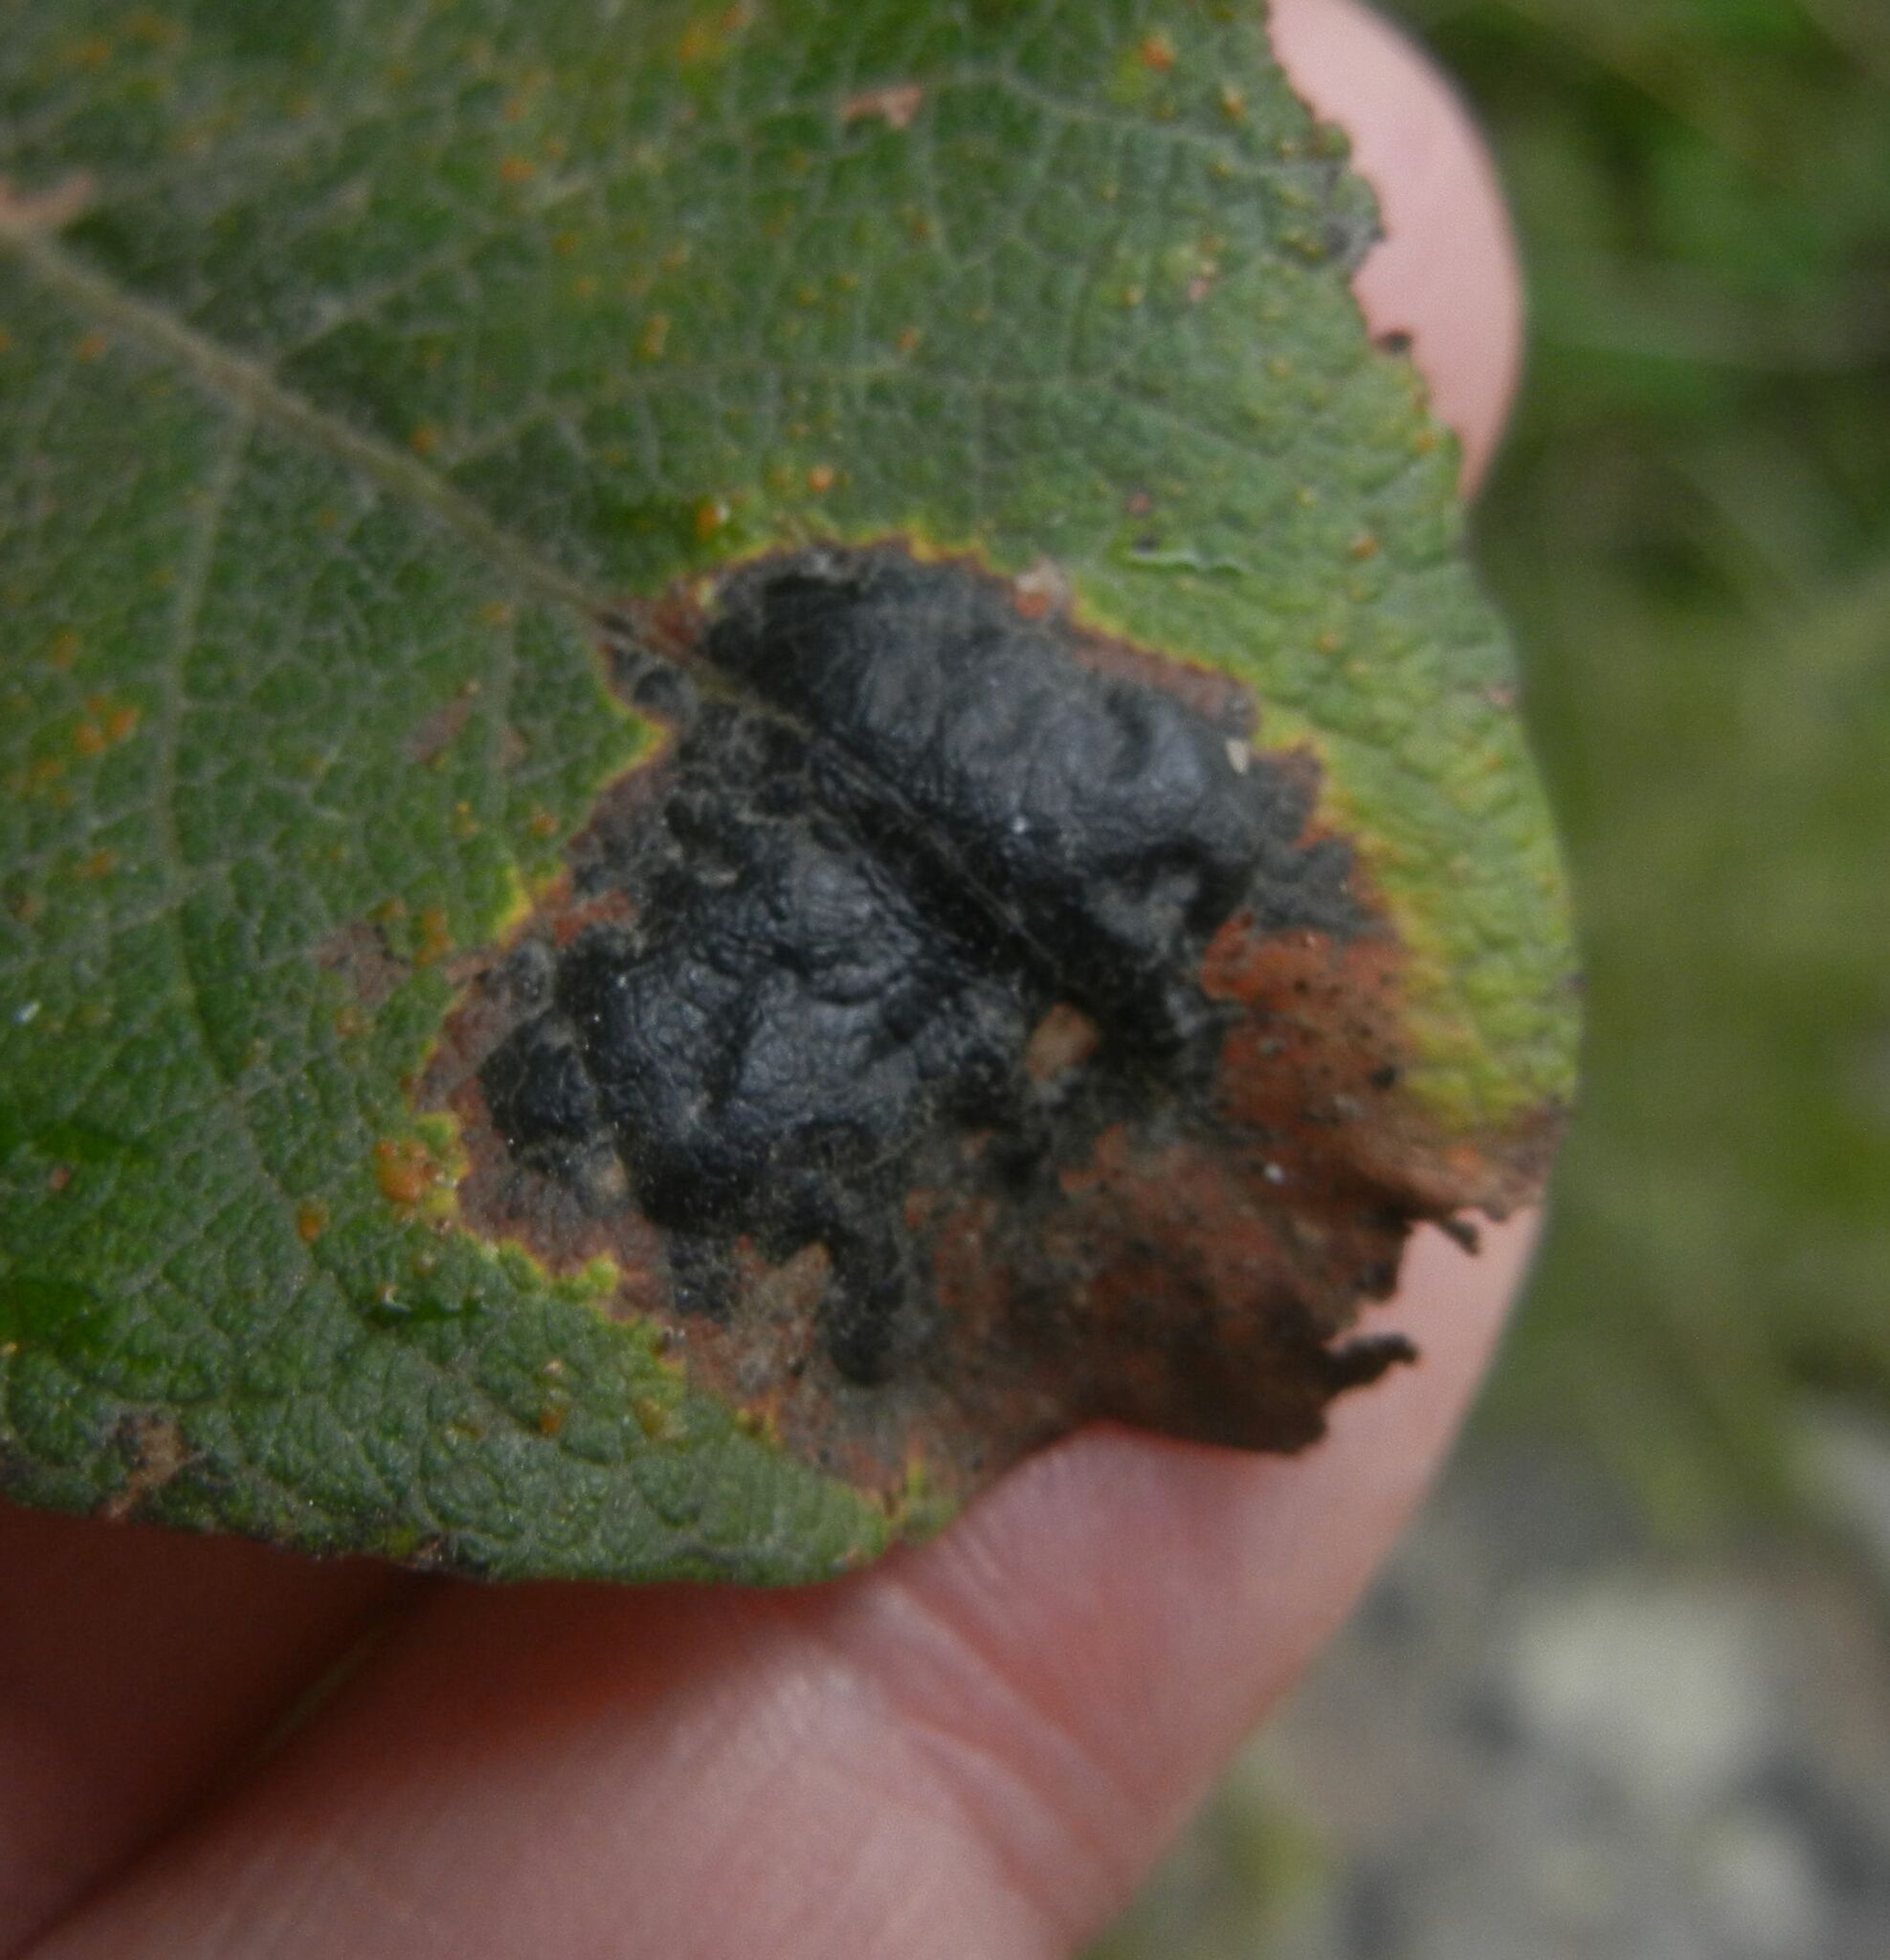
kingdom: Fungi
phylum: Ascomycota
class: Leotiomycetes
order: Rhytismatales
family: Rhytismataceae
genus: Rhytisma
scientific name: Rhytisma salicinum
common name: Willow tarspot
